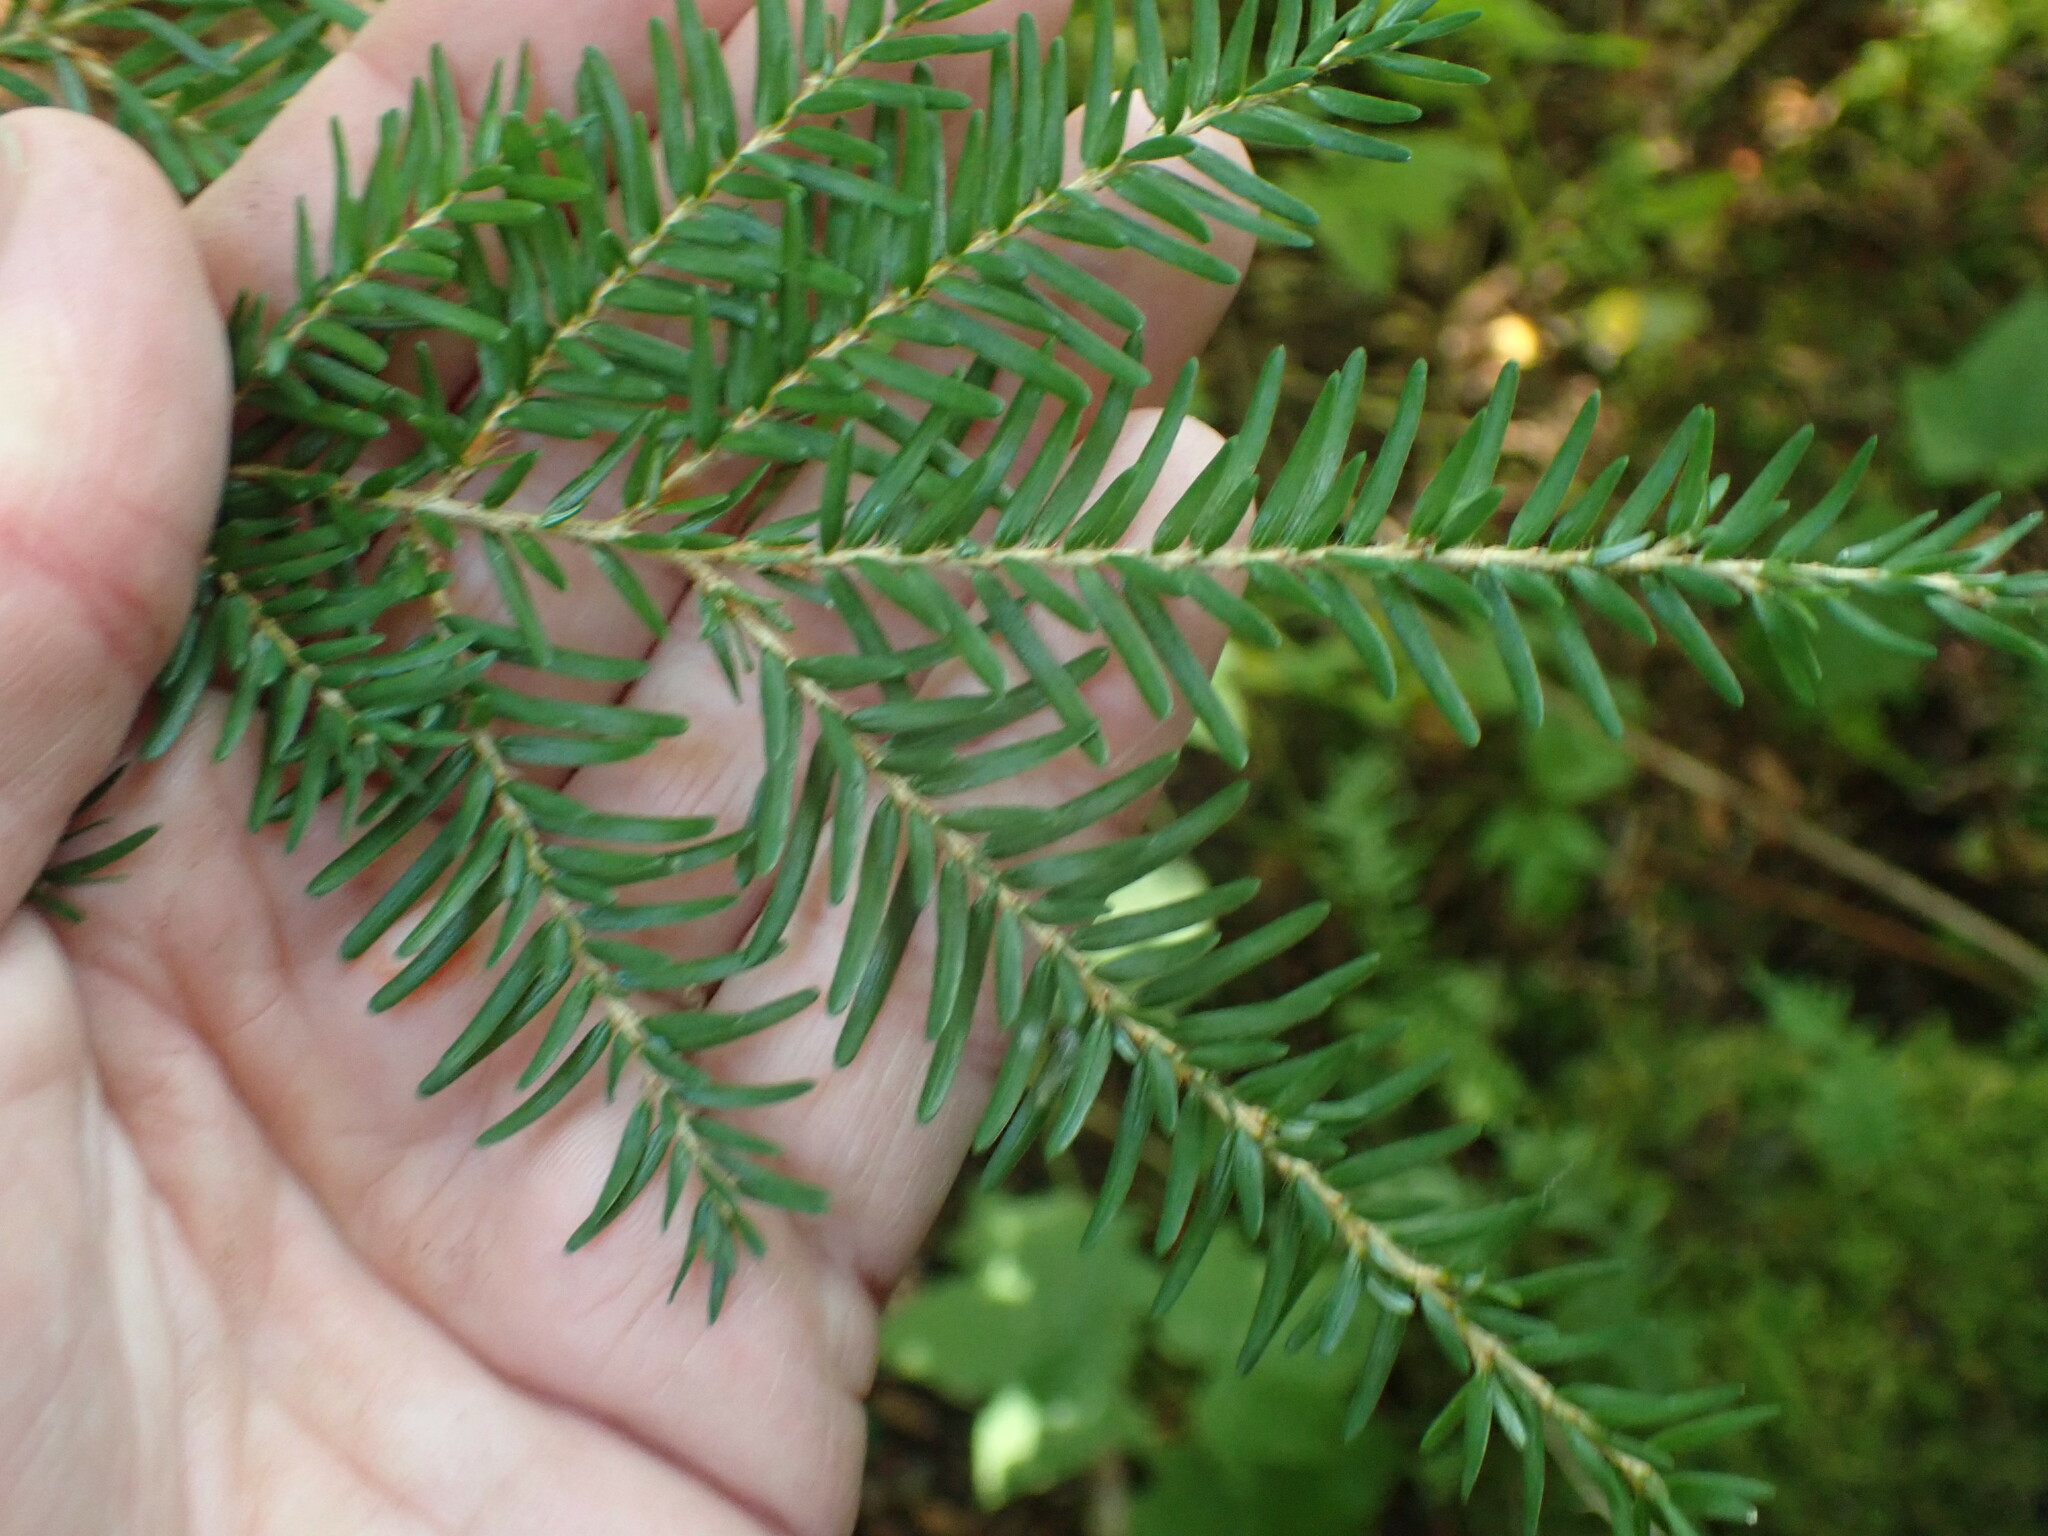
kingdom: Plantae
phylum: Tracheophyta
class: Pinopsida
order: Pinales
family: Pinaceae
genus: Tsuga
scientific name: Tsuga heterophylla
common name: Western hemlock
